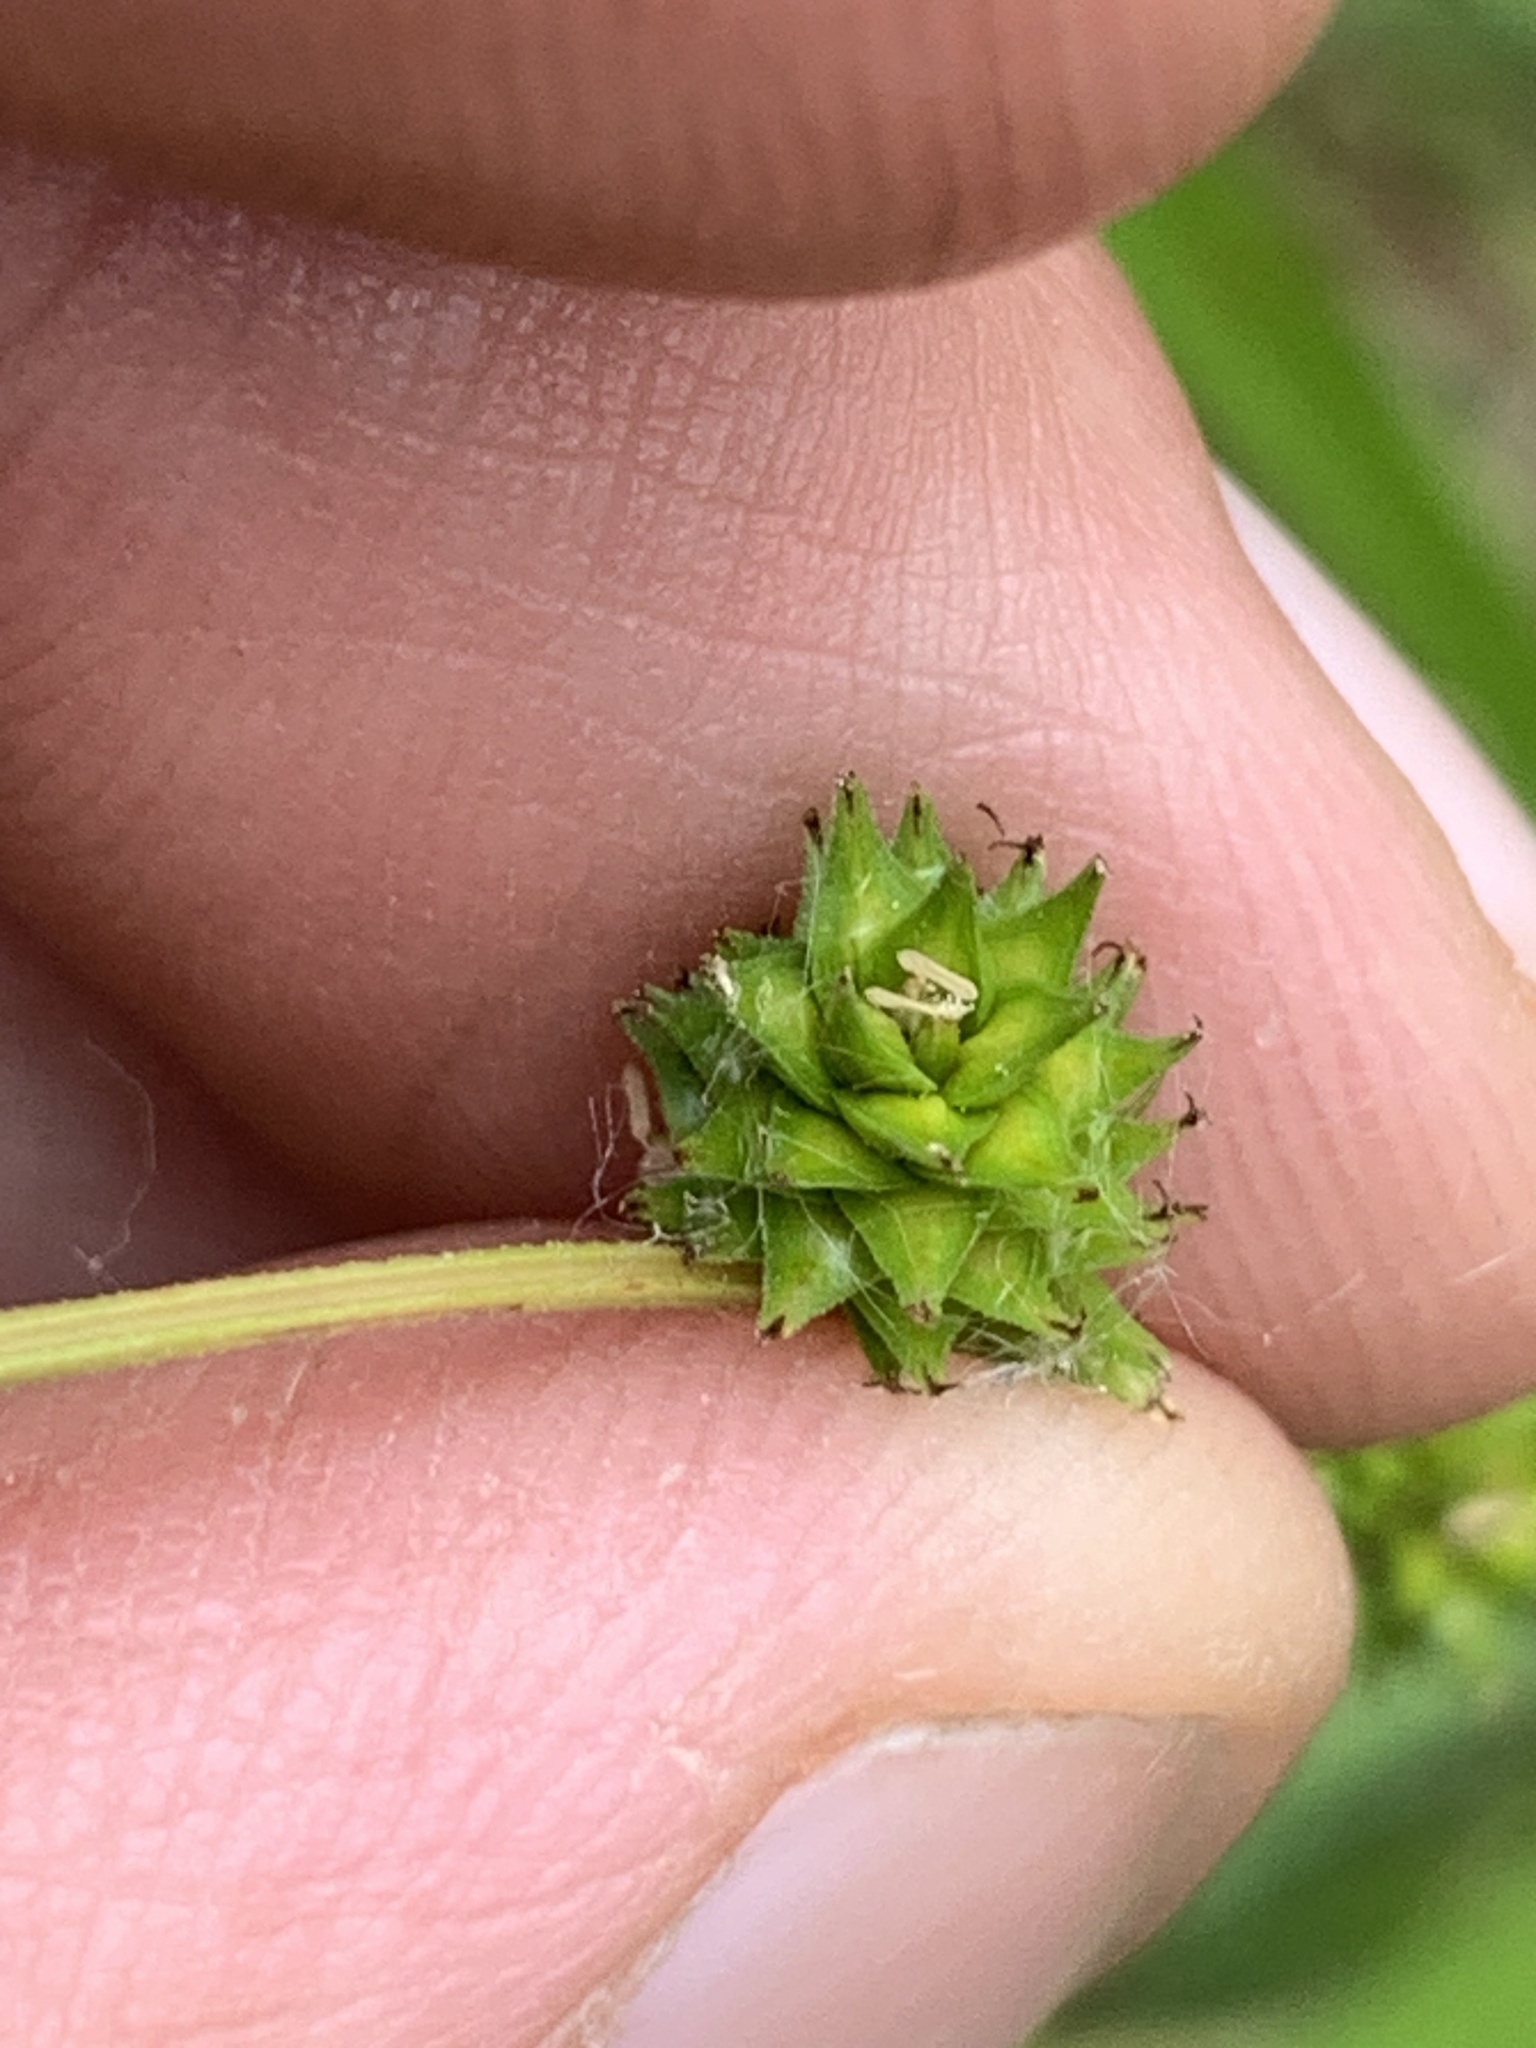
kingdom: Plantae
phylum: Tracheophyta
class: Liliopsida
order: Poales
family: Cyperaceae
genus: Carex
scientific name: Carex sparganioides
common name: Burreed sedge
